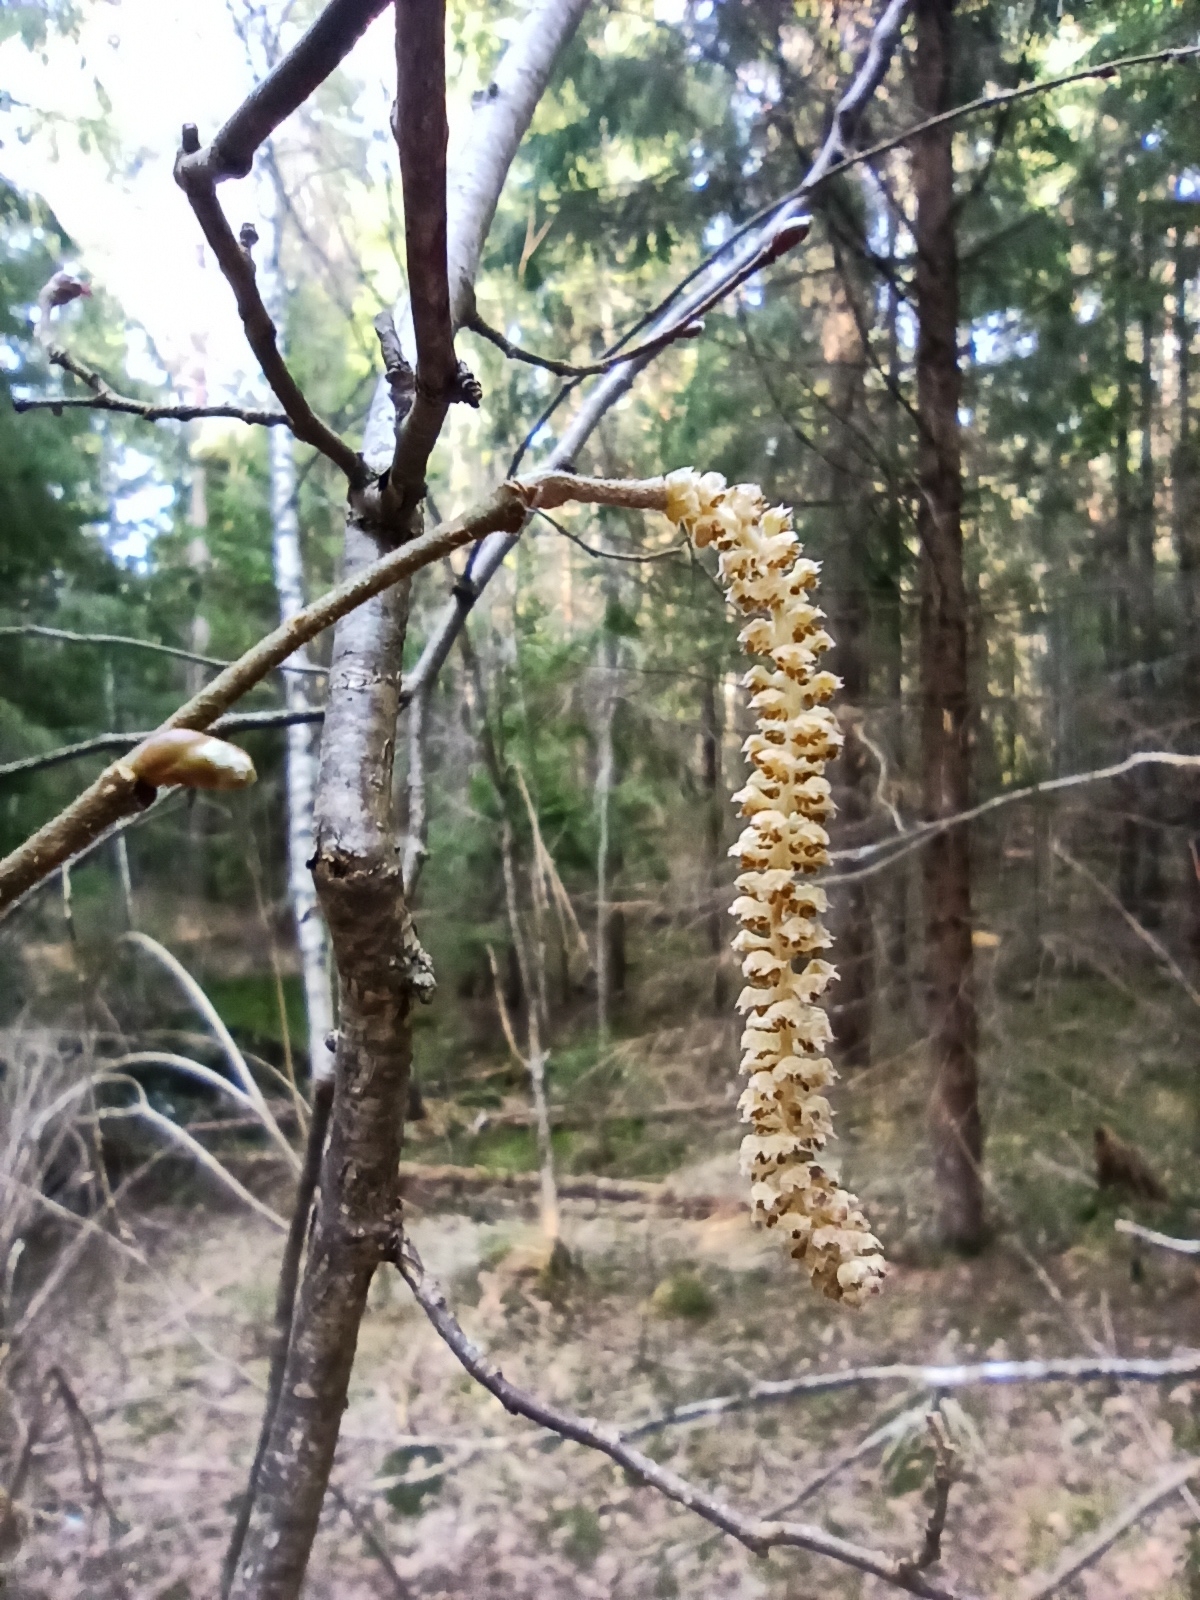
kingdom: Plantae
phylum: Tracheophyta
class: Magnoliopsida
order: Fagales
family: Betulaceae
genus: Corylus
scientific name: Corylus avellana
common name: European hazel
